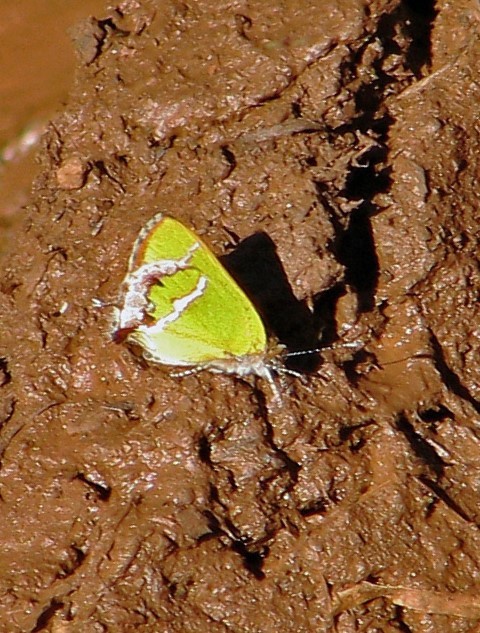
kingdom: Animalia
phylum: Arthropoda
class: Insecta
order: Lepidoptera
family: Lycaenidae
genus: Chlorostrymon
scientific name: Chlorostrymon simaethis
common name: Silver-banded hairstreak
